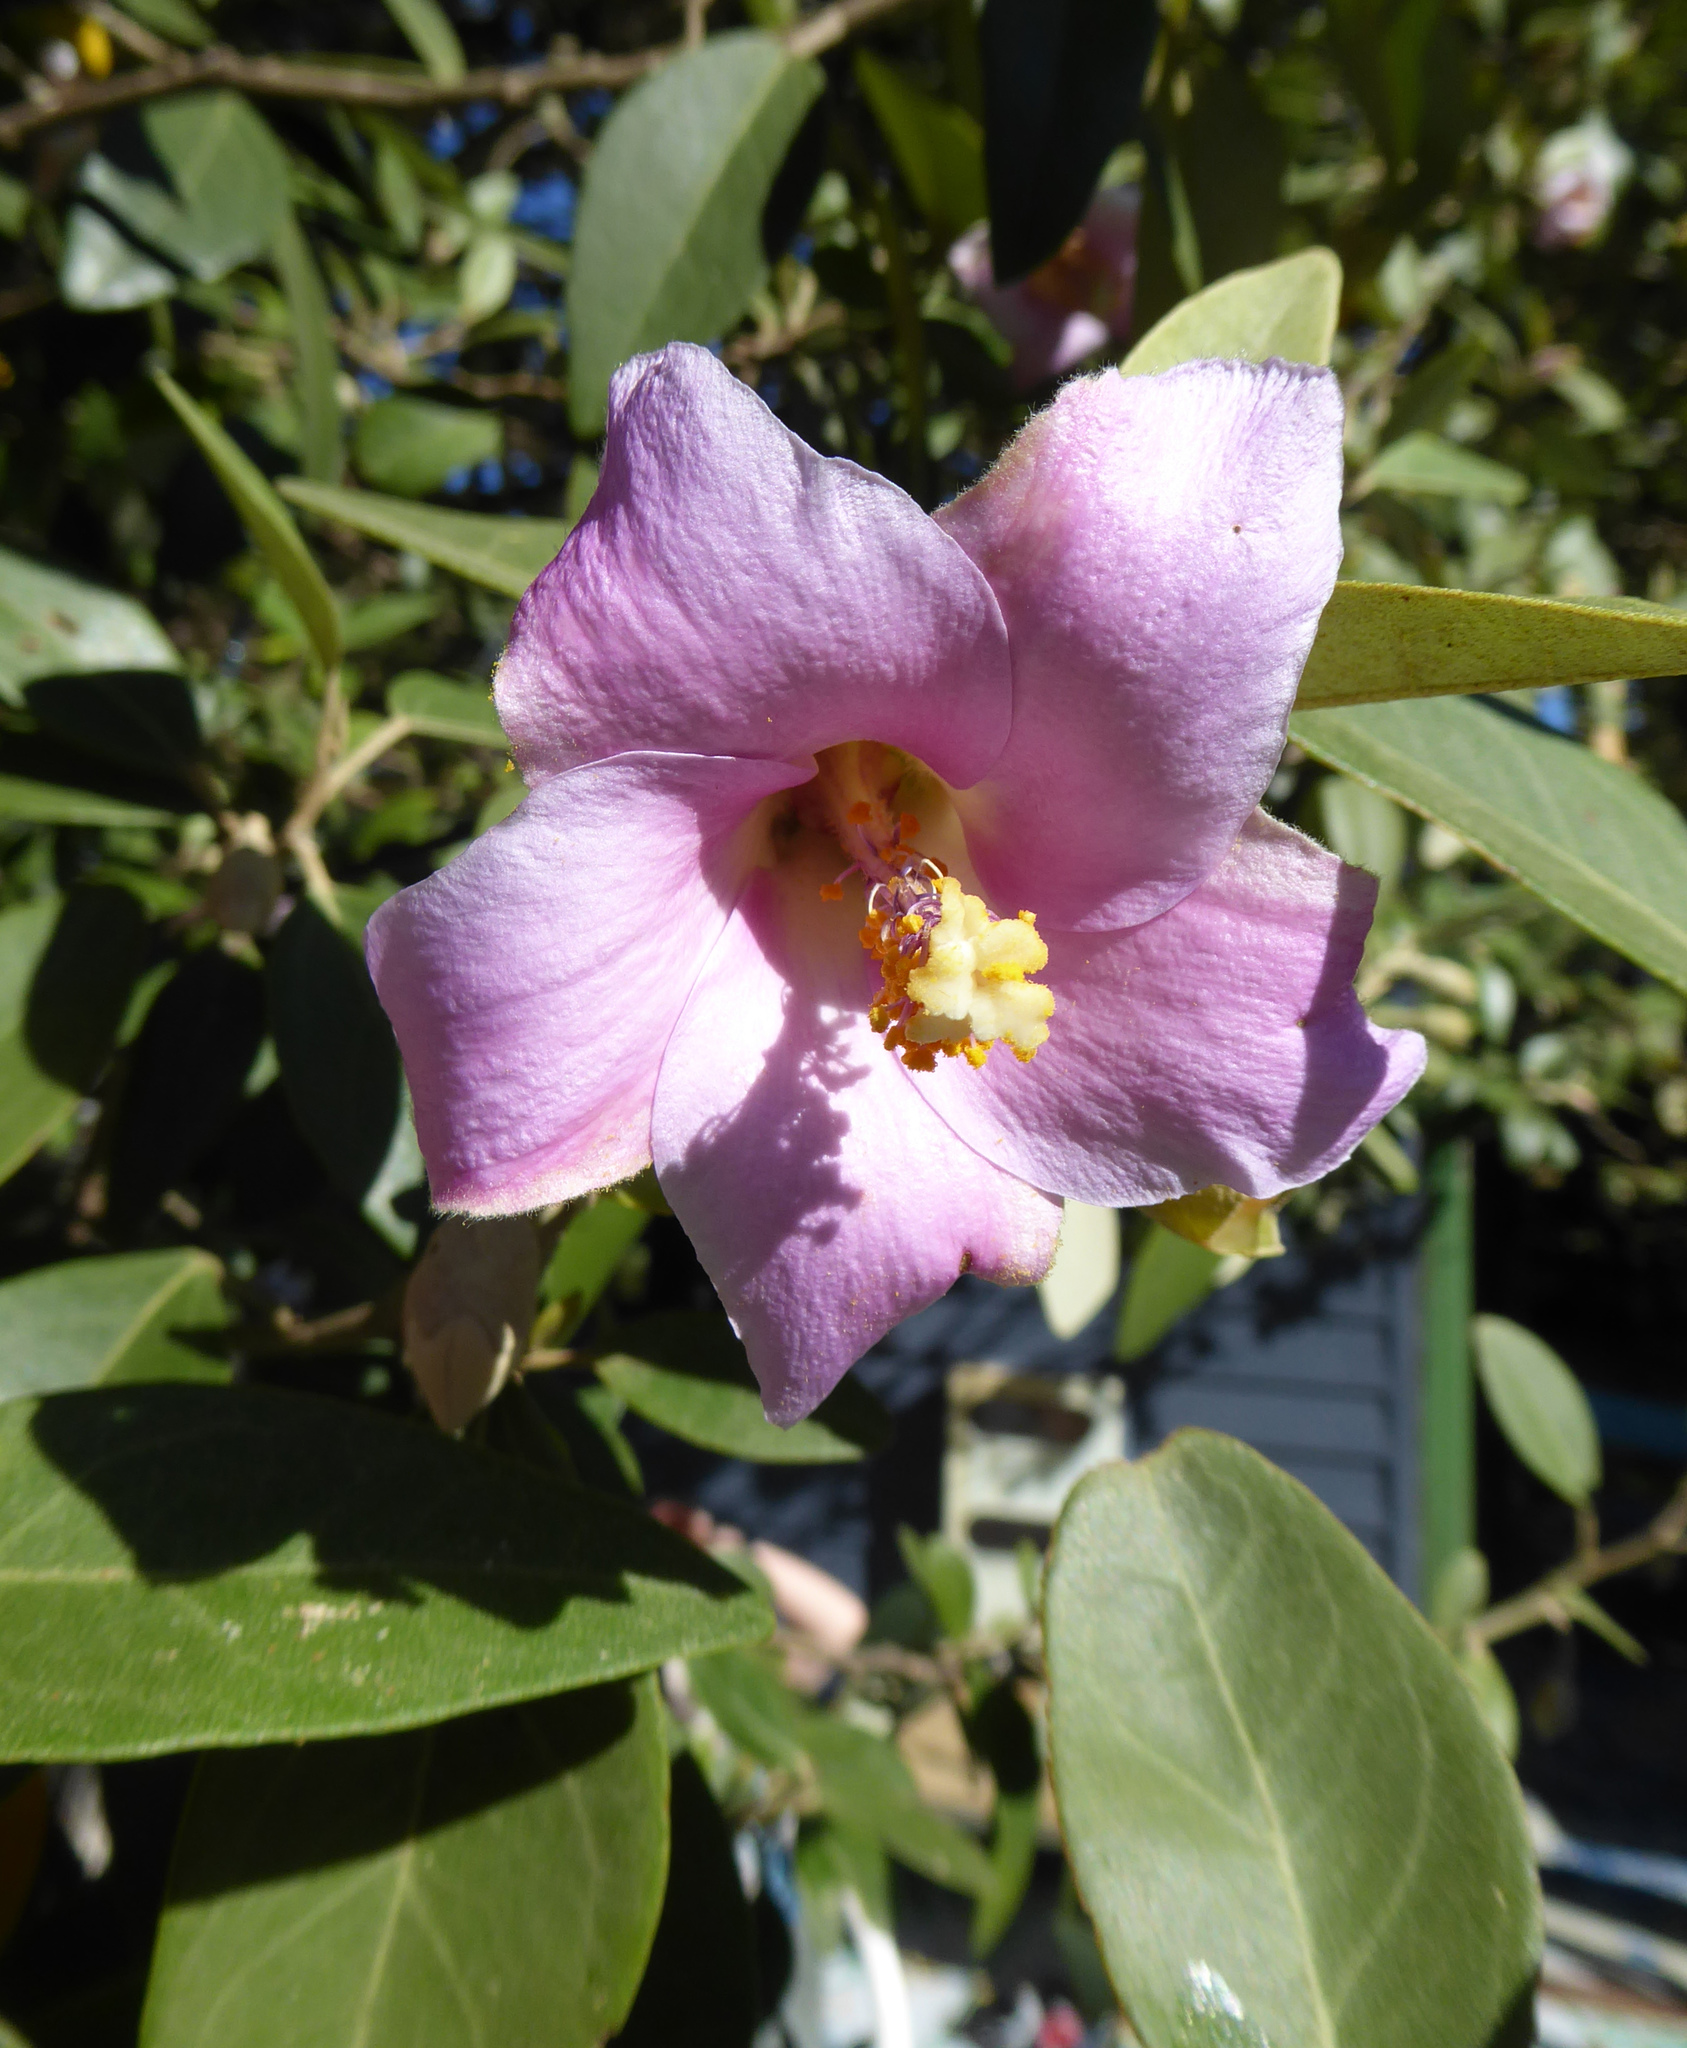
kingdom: Plantae
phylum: Tracheophyta
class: Magnoliopsida
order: Malvales
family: Malvaceae
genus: Lagunaria
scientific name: Lagunaria patersonia
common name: Cow itch tree
